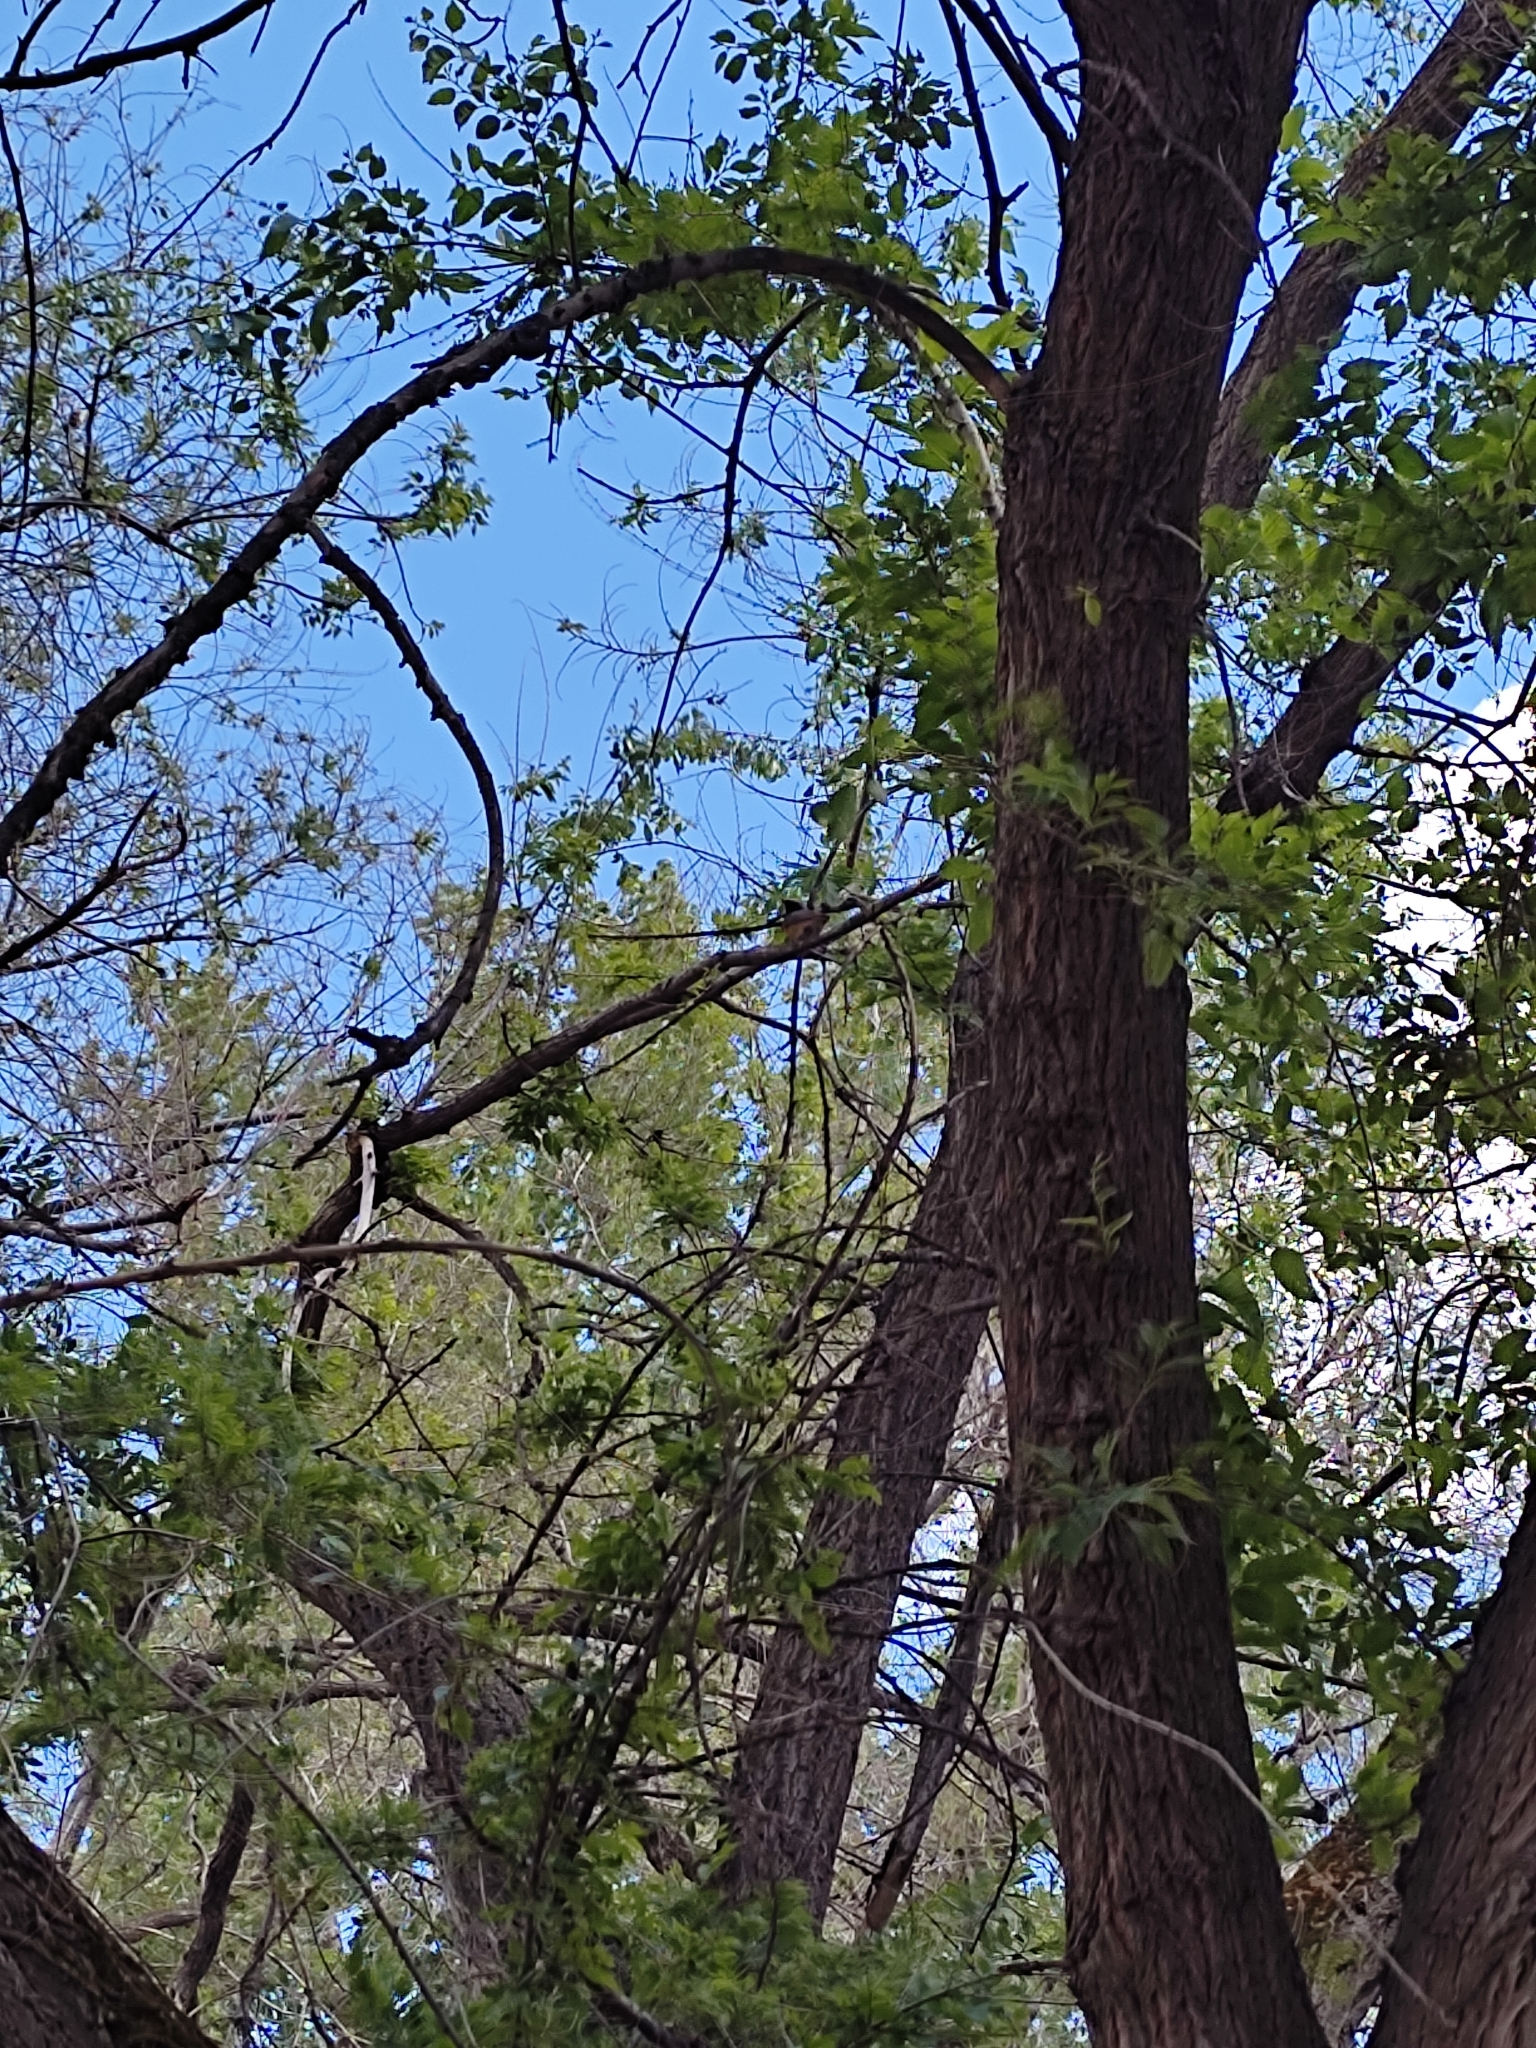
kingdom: Animalia
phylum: Chordata
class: Aves
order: Passeriformes
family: Muscicapidae
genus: Phoenicurus
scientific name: Phoenicurus phoenicurus
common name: Common redstart
